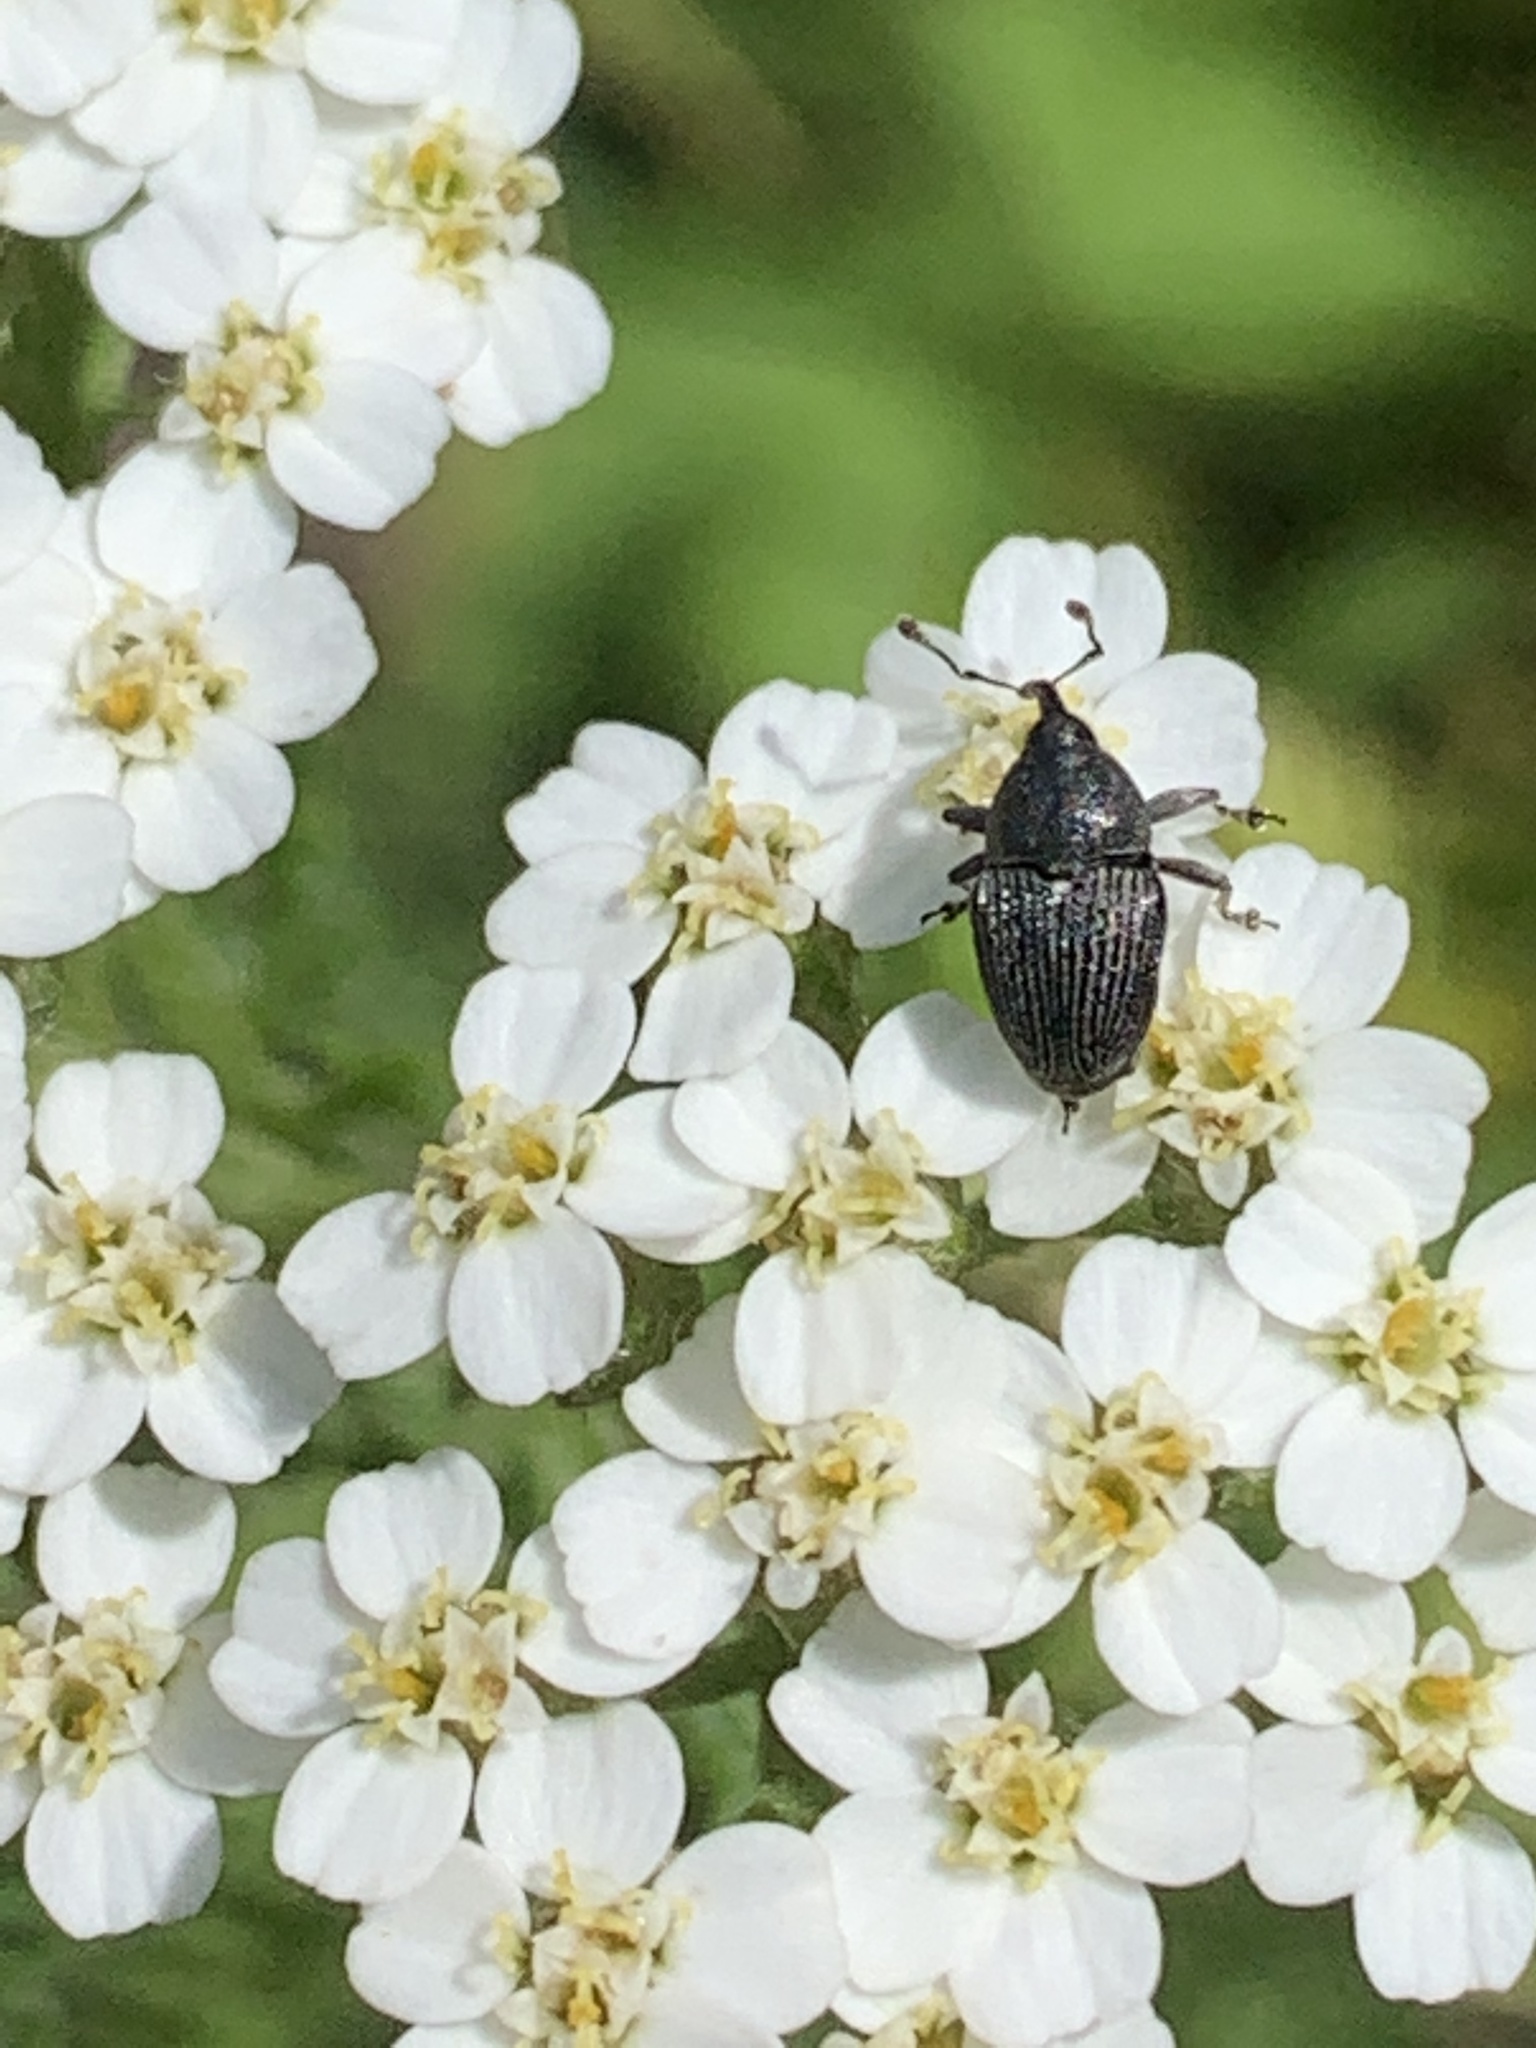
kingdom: Animalia
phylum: Arthropoda
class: Insecta
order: Coleoptera
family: Curculionidae
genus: Odontocorynus
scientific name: Odontocorynus umbellae
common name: Daisy flower weevil
